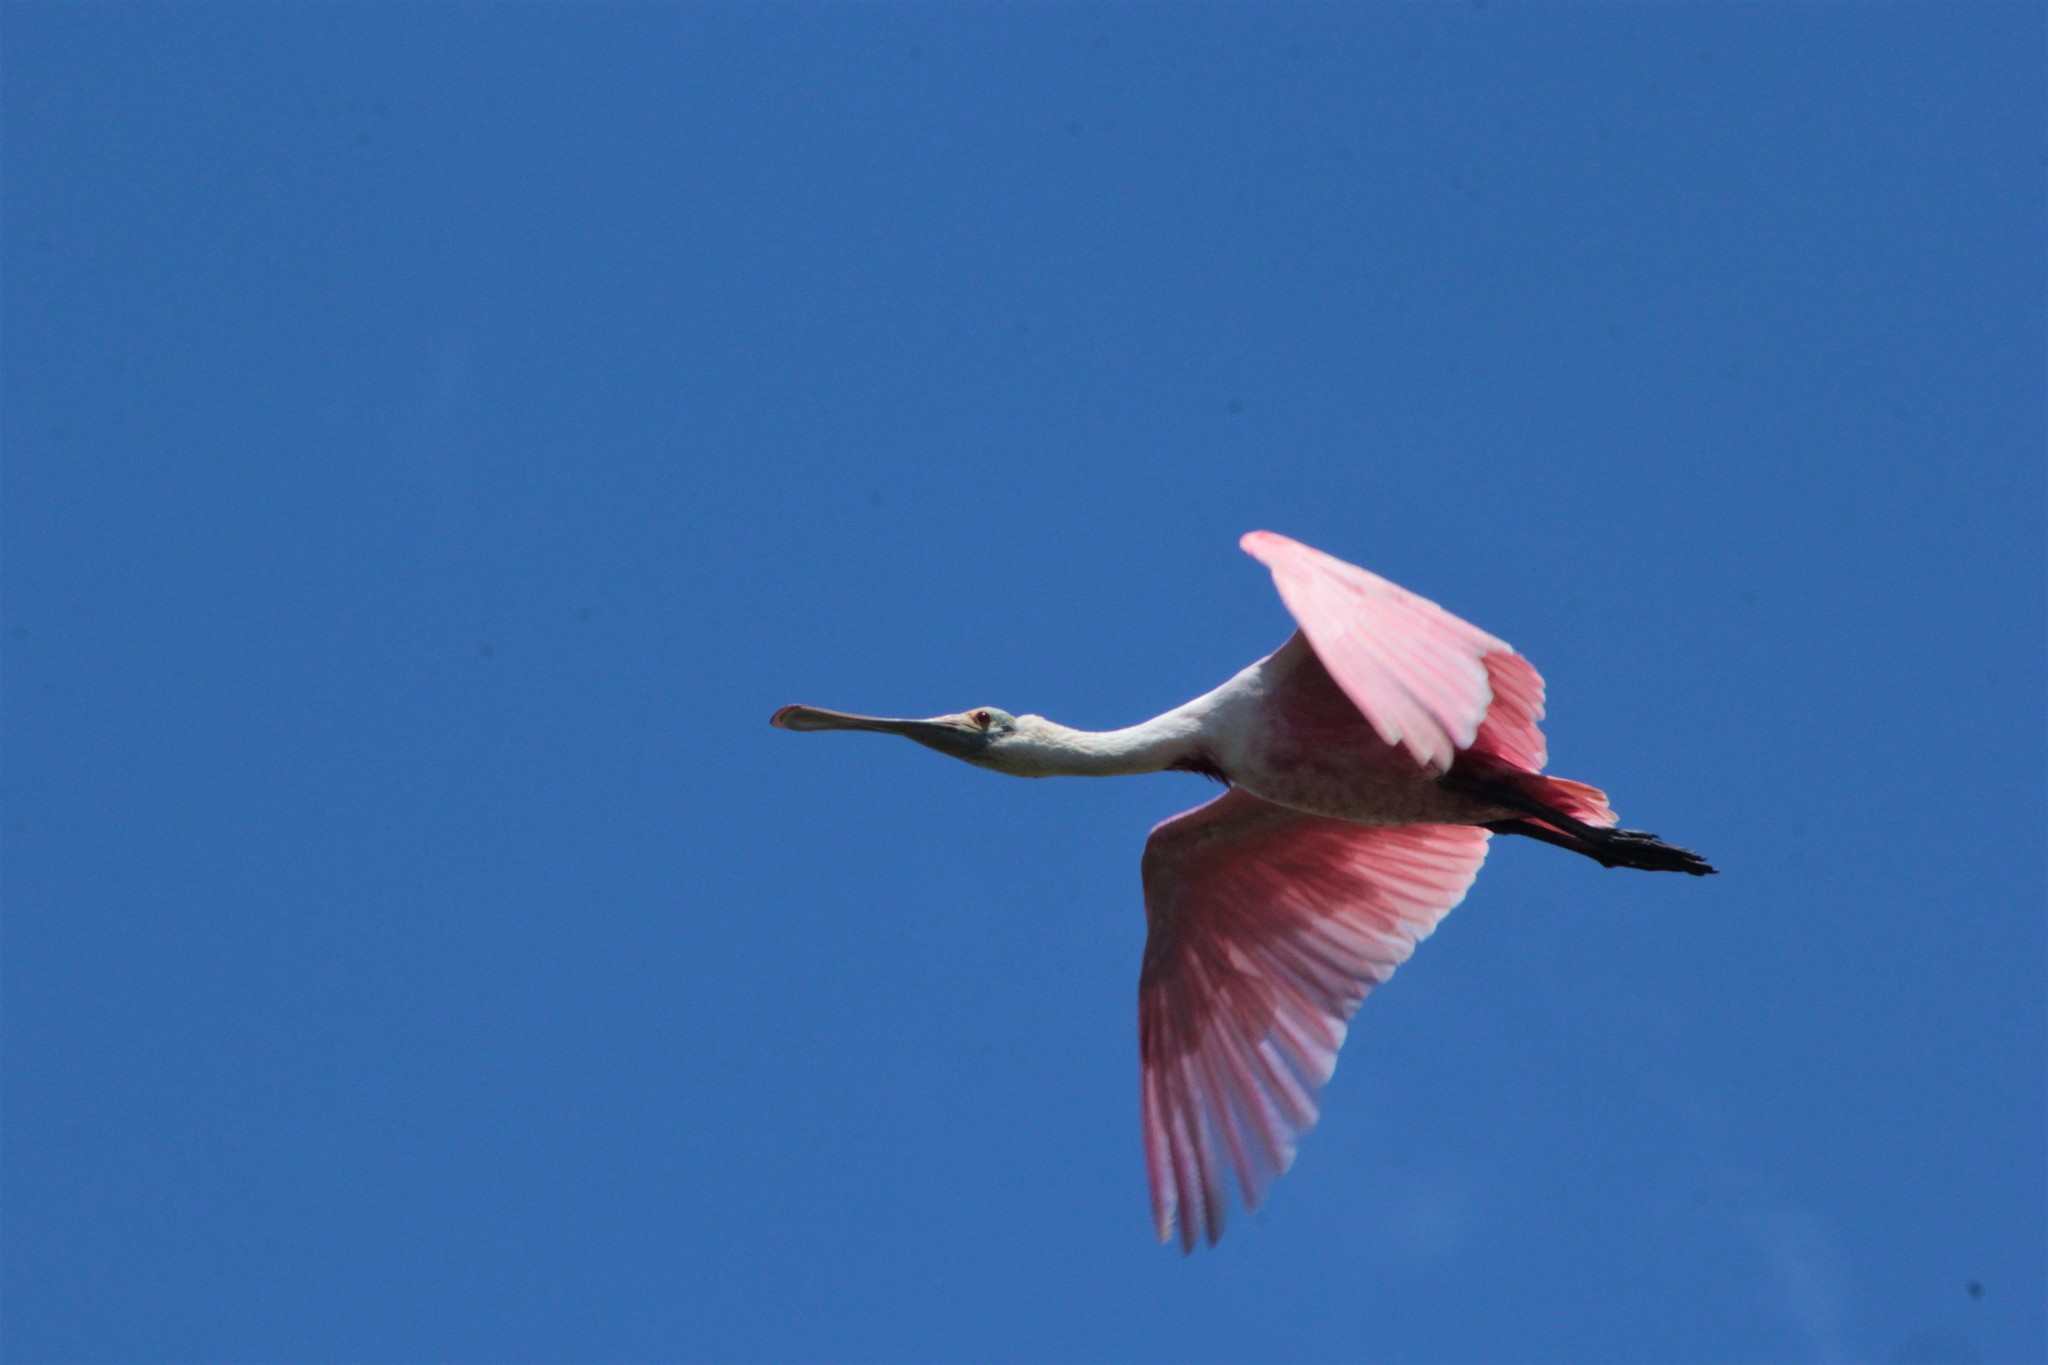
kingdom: Animalia
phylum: Chordata
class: Aves
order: Pelecaniformes
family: Threskiornithidae
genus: Platalea
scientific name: Platalea ajaja
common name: Roseate spoonbill
